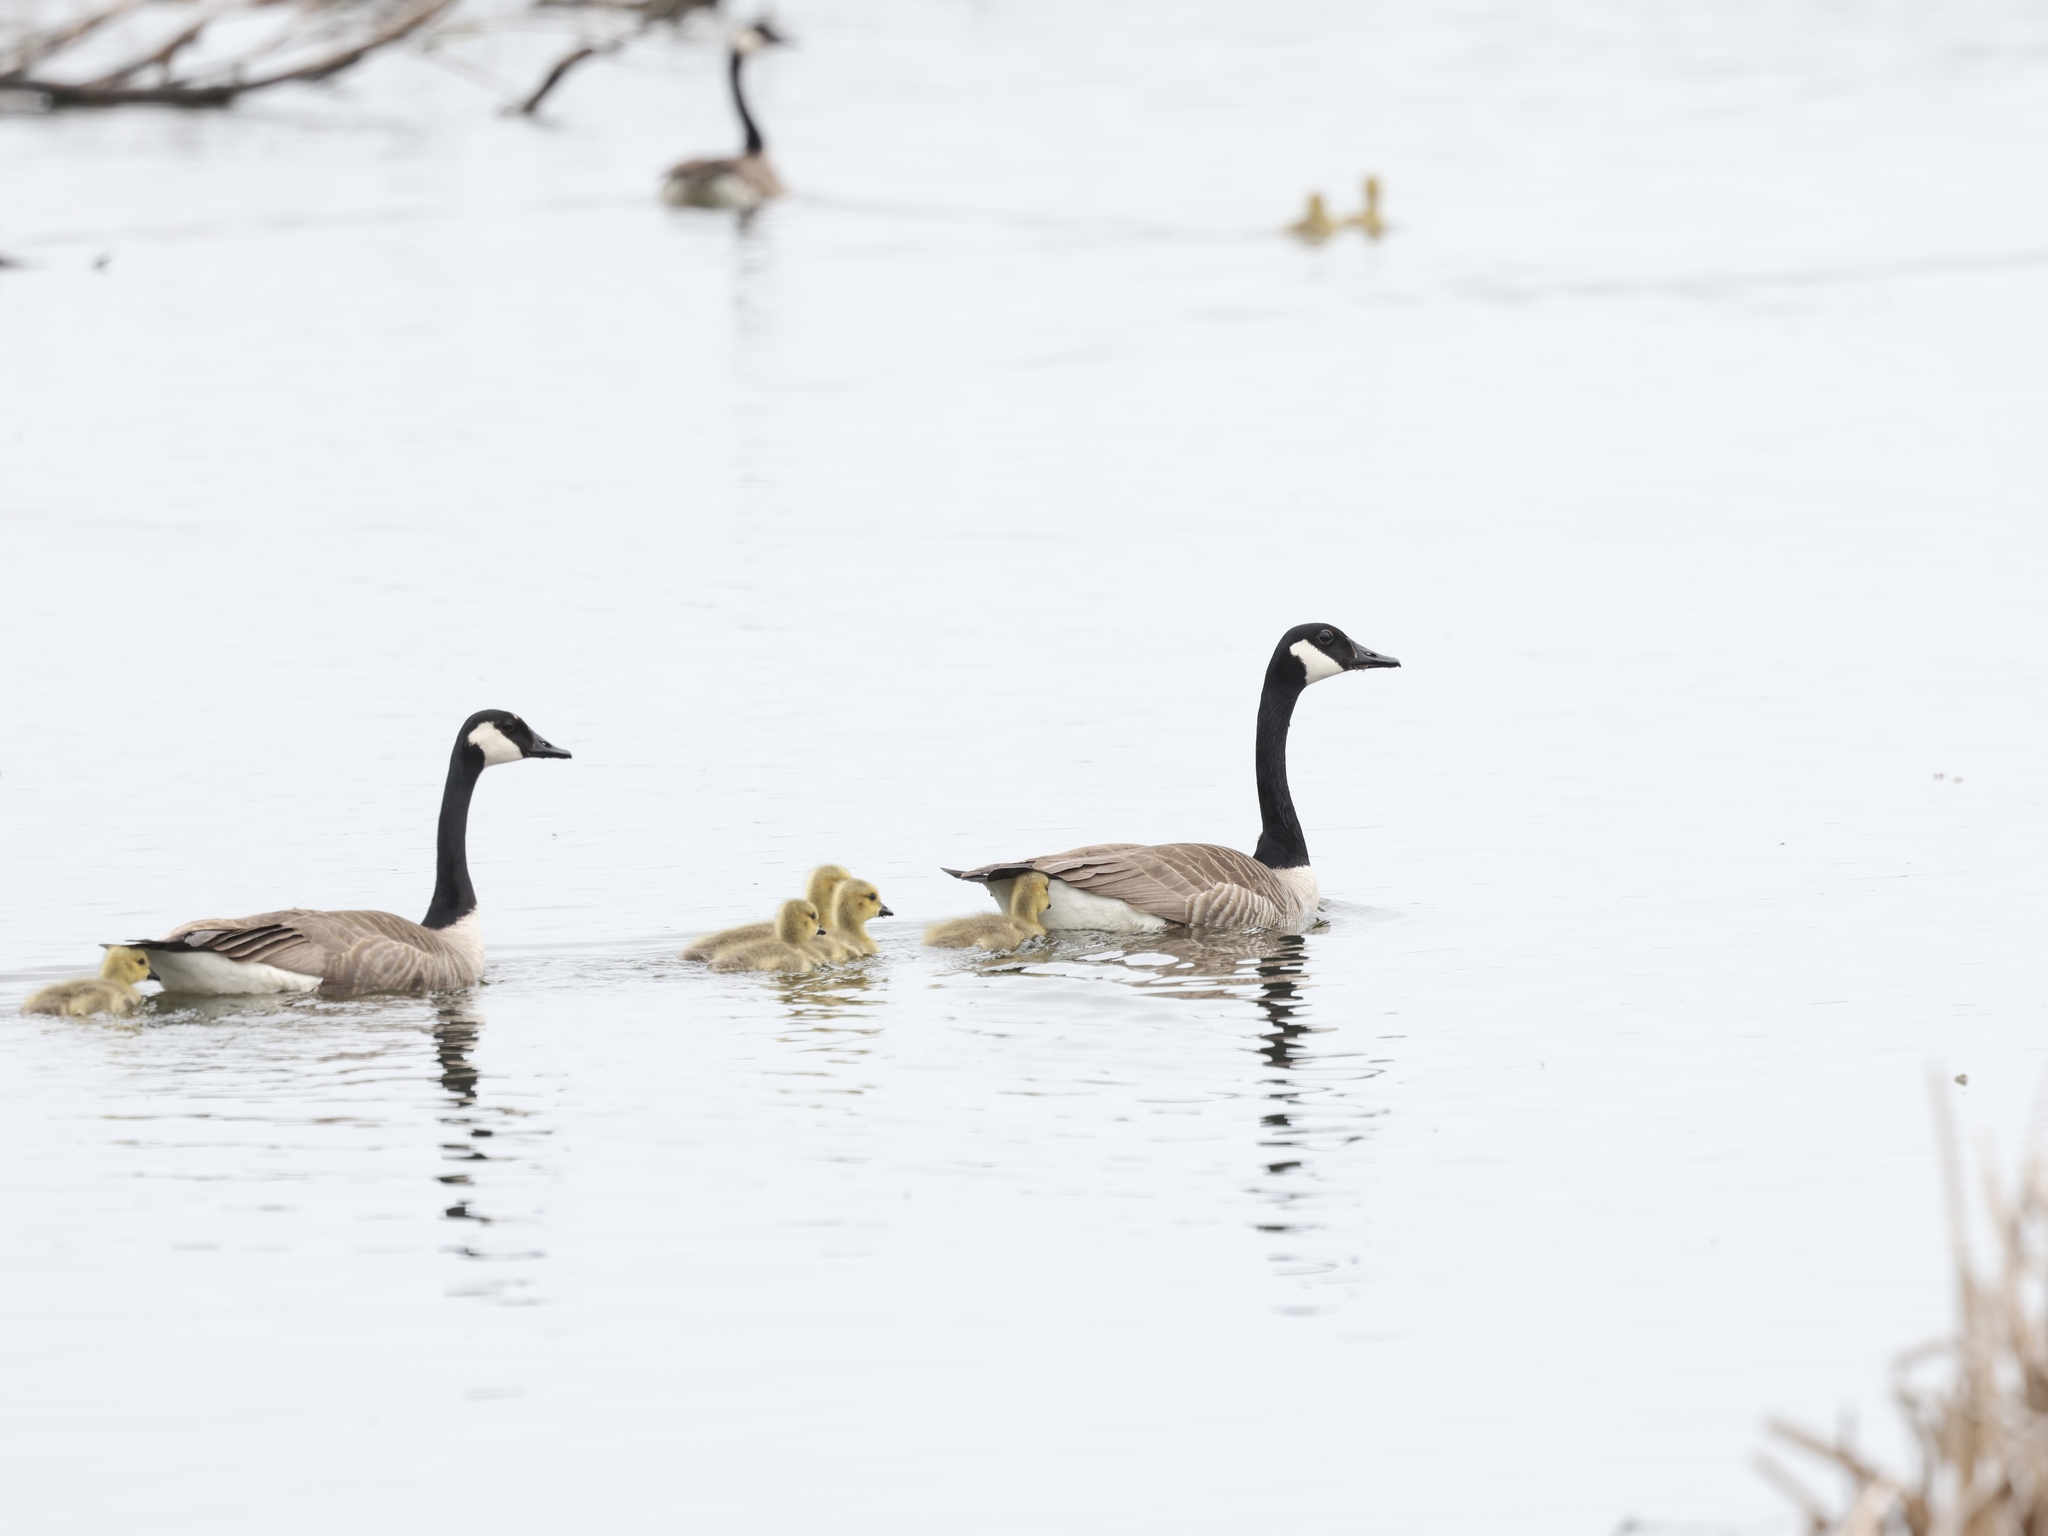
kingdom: Animalia
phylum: Chordata
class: Aves
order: Anseriformes
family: Anatidae
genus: Branta
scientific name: Branta canadensis
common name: Canada goose
